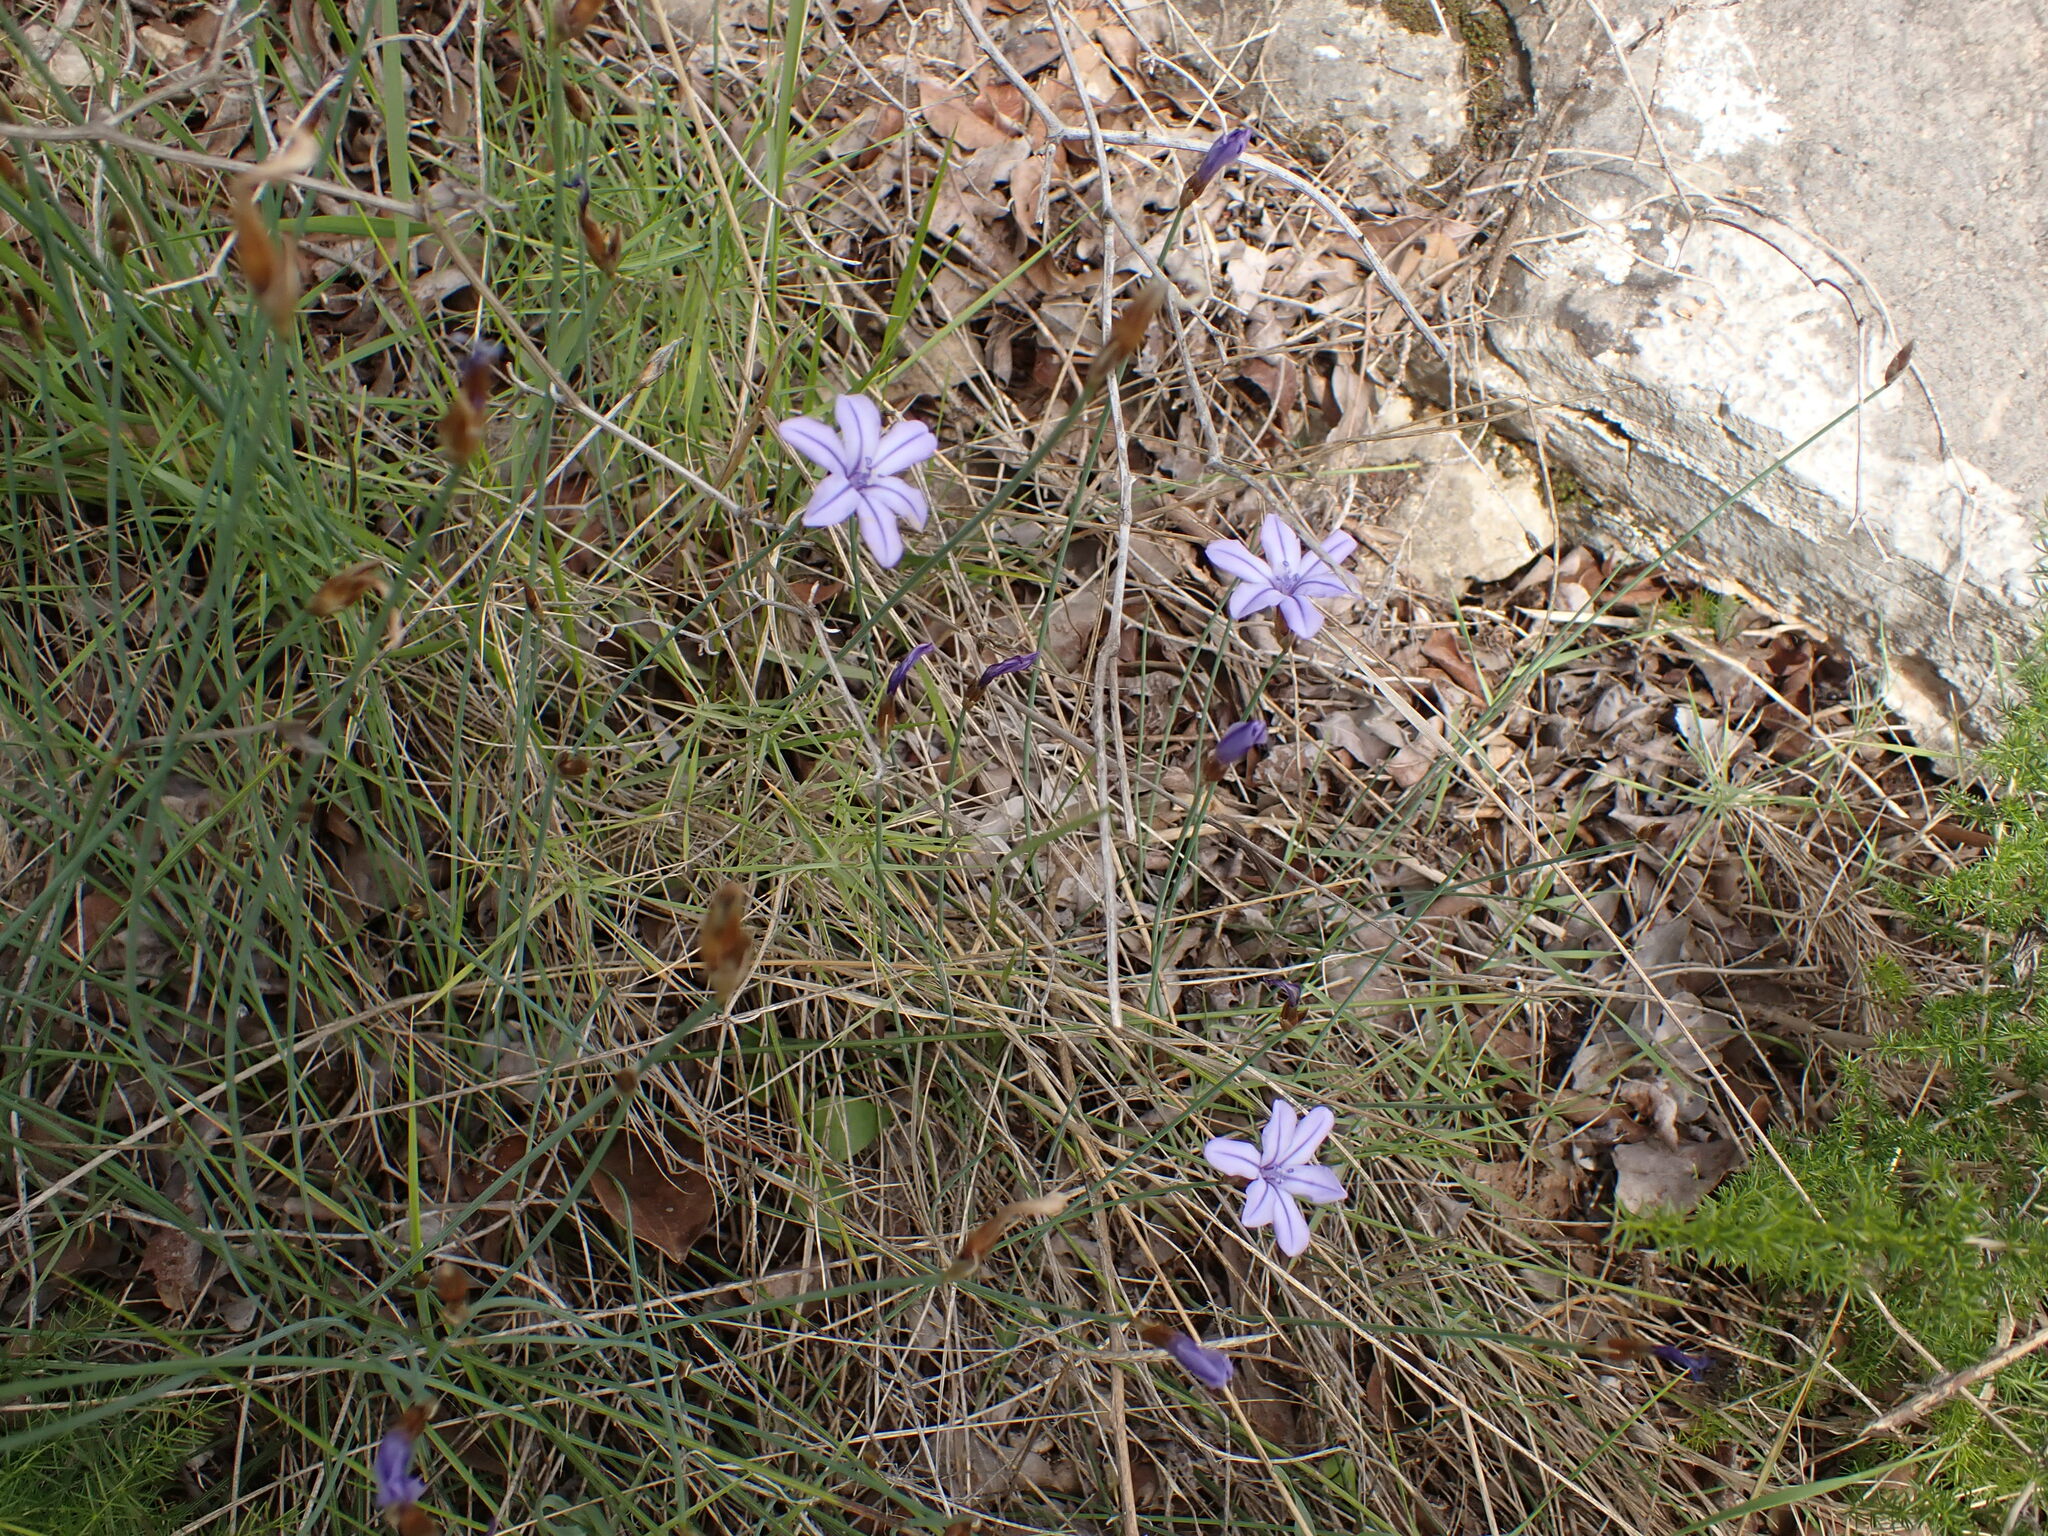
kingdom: Plantae
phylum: Tracheophyta
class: Liliopsida
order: Asparagales
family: Asparagaceae
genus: Aphyllanthes
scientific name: Aphyllanthes monspeliensis
